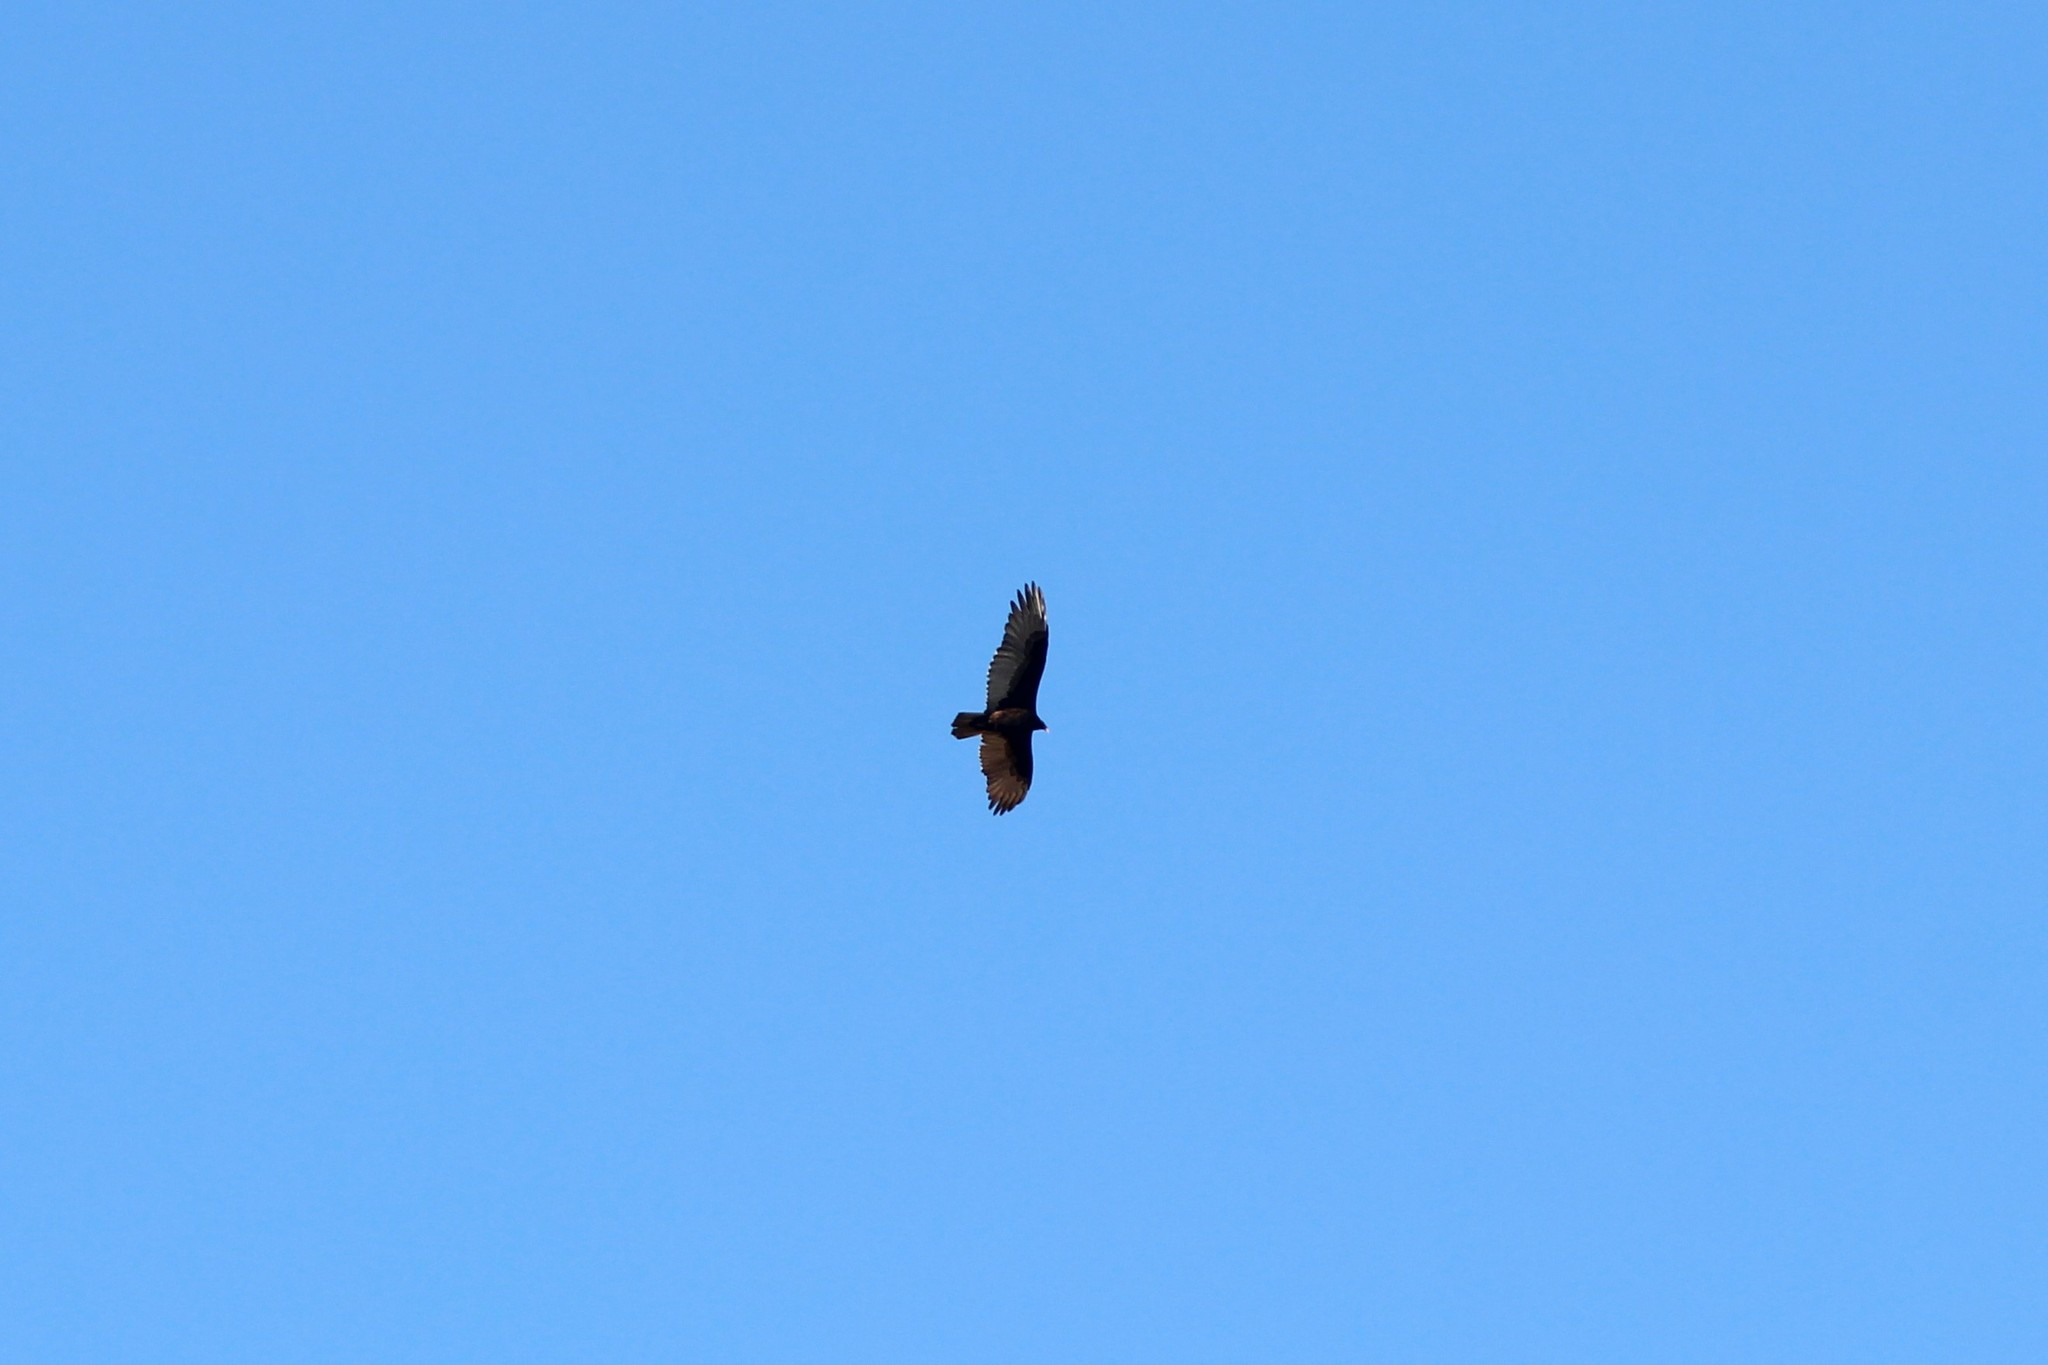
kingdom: Animalia
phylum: Chordata
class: Aves
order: Accipitriformes
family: Cathartidae
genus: Cathartes
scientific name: Cathartes aura
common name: Turkey vulture
